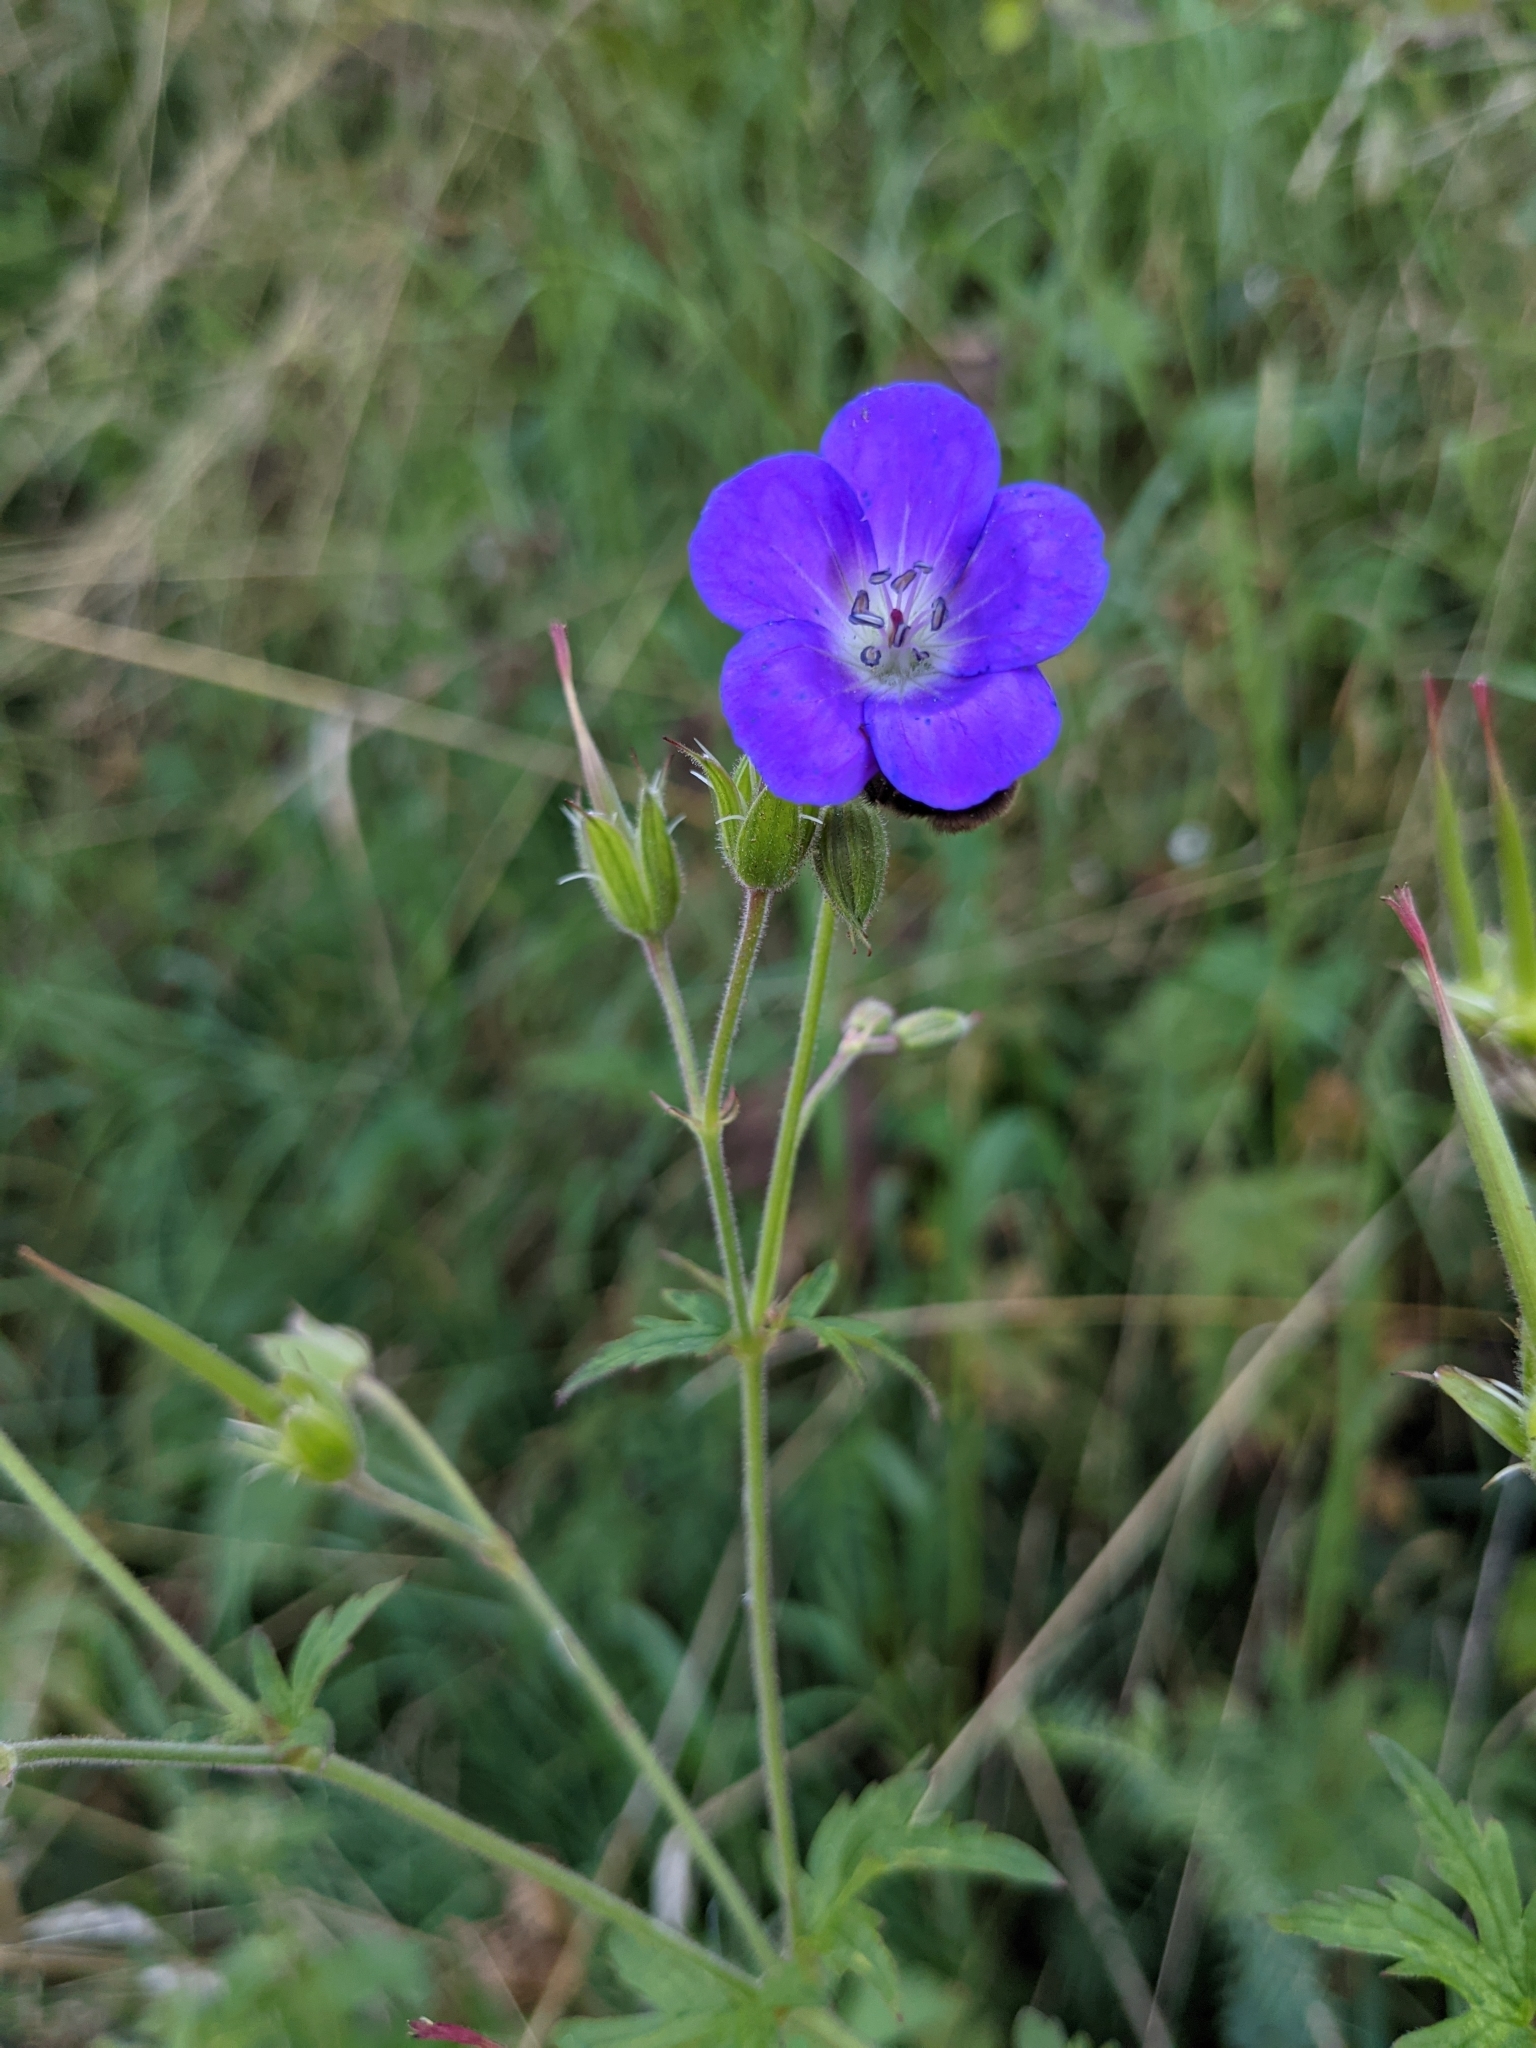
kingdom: Plantae
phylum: Tracheophyta
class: Magnoliopsida
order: Geraniales
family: Geraniaceae
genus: Geranium
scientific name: Geranium sylvaticum
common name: Wood crane's-bill
